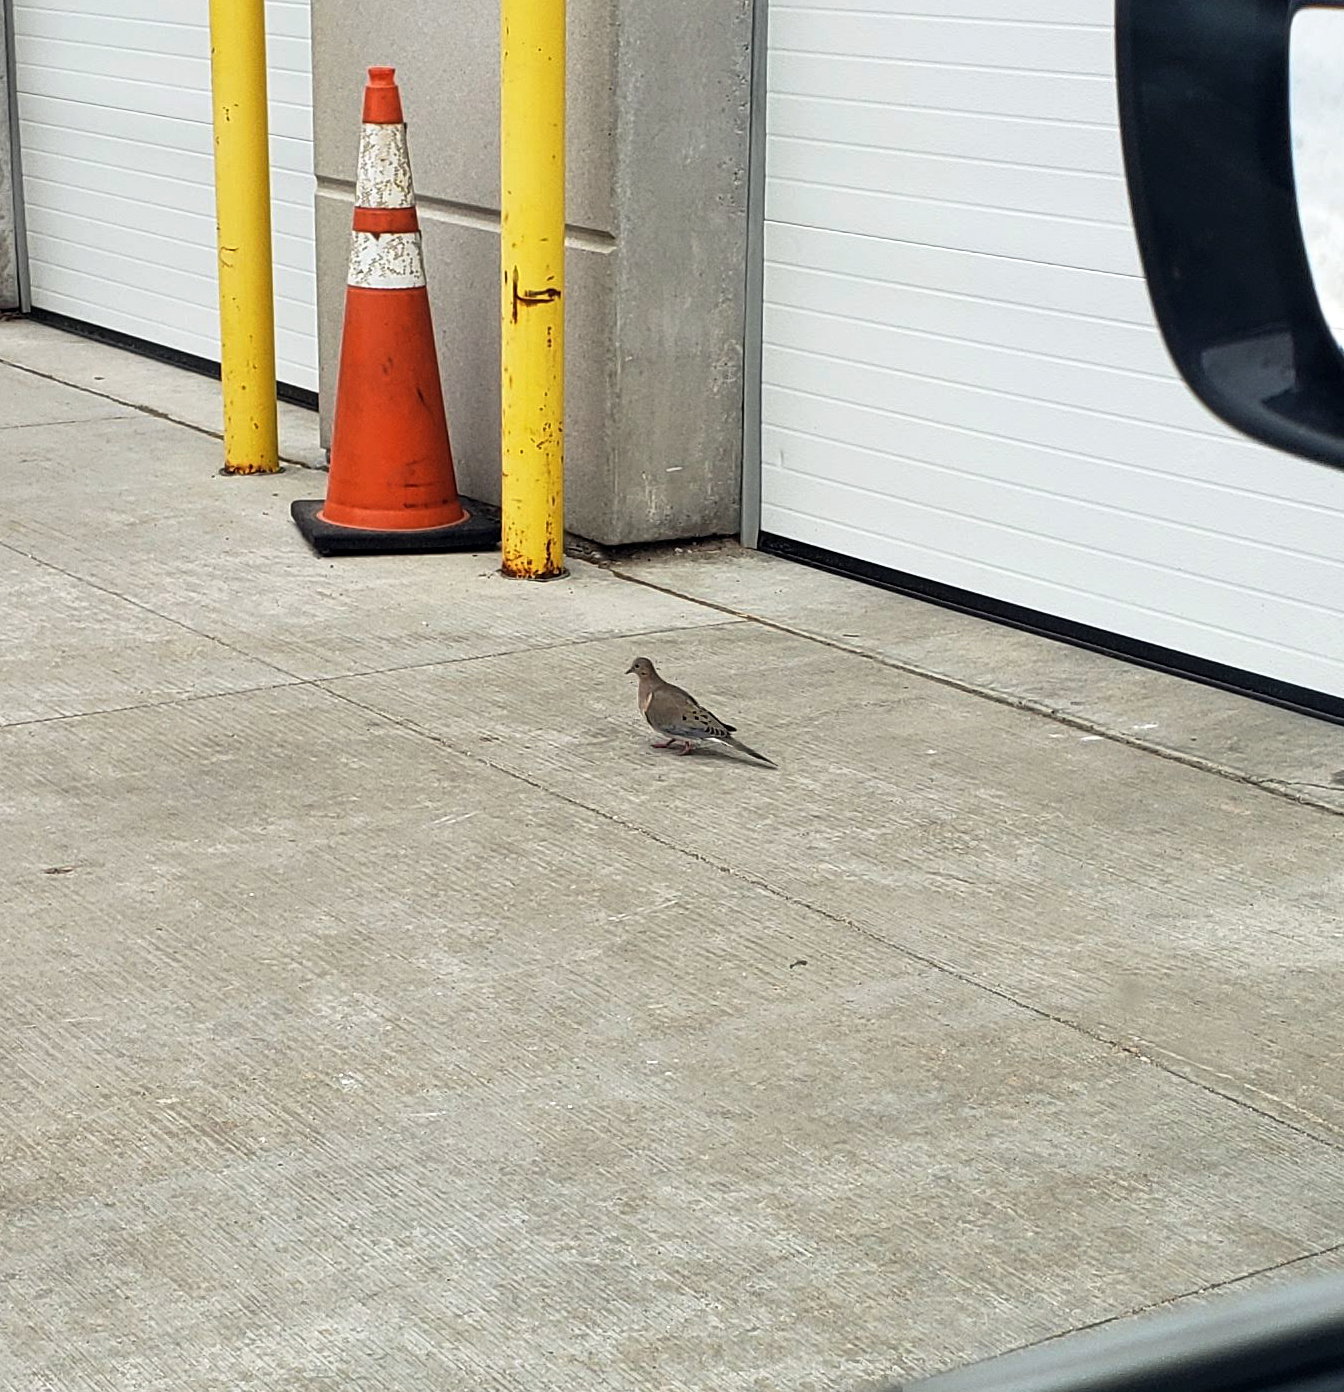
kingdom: Animalia
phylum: Chordata
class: Aves
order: Columbiformes
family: Columbidae
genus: Zenaida
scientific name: Zenaida macroura
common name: Mourning dove
